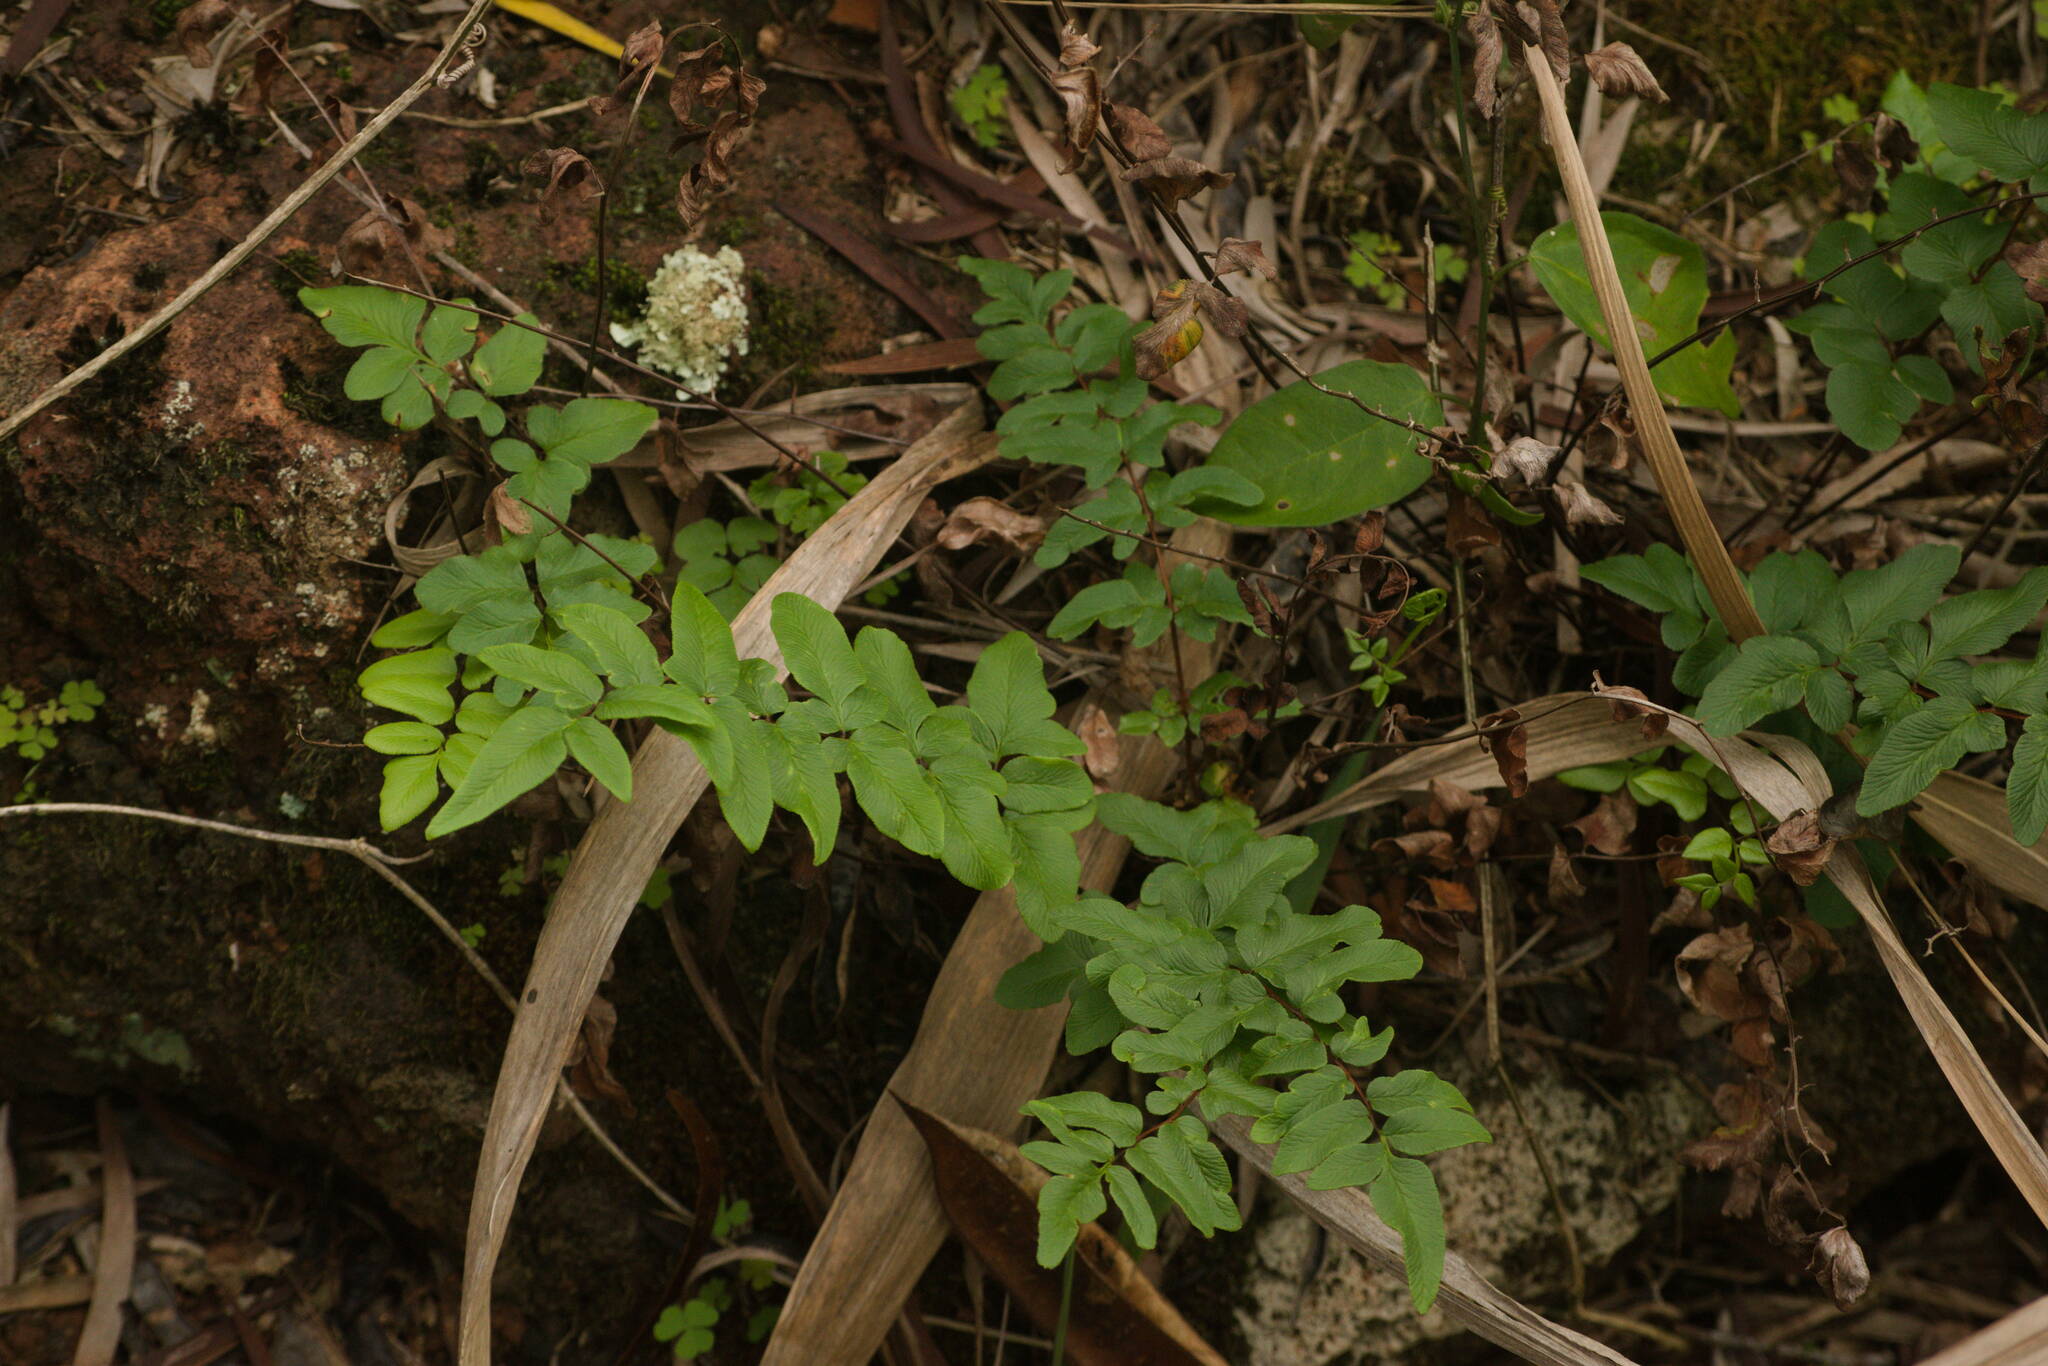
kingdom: Plantae
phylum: Tracheophyta
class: Polypodiopsida
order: Polypodiales
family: Pteridaceae
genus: Cheilanthes
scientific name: Cheilanthes viridis
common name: Green cliffbrake
